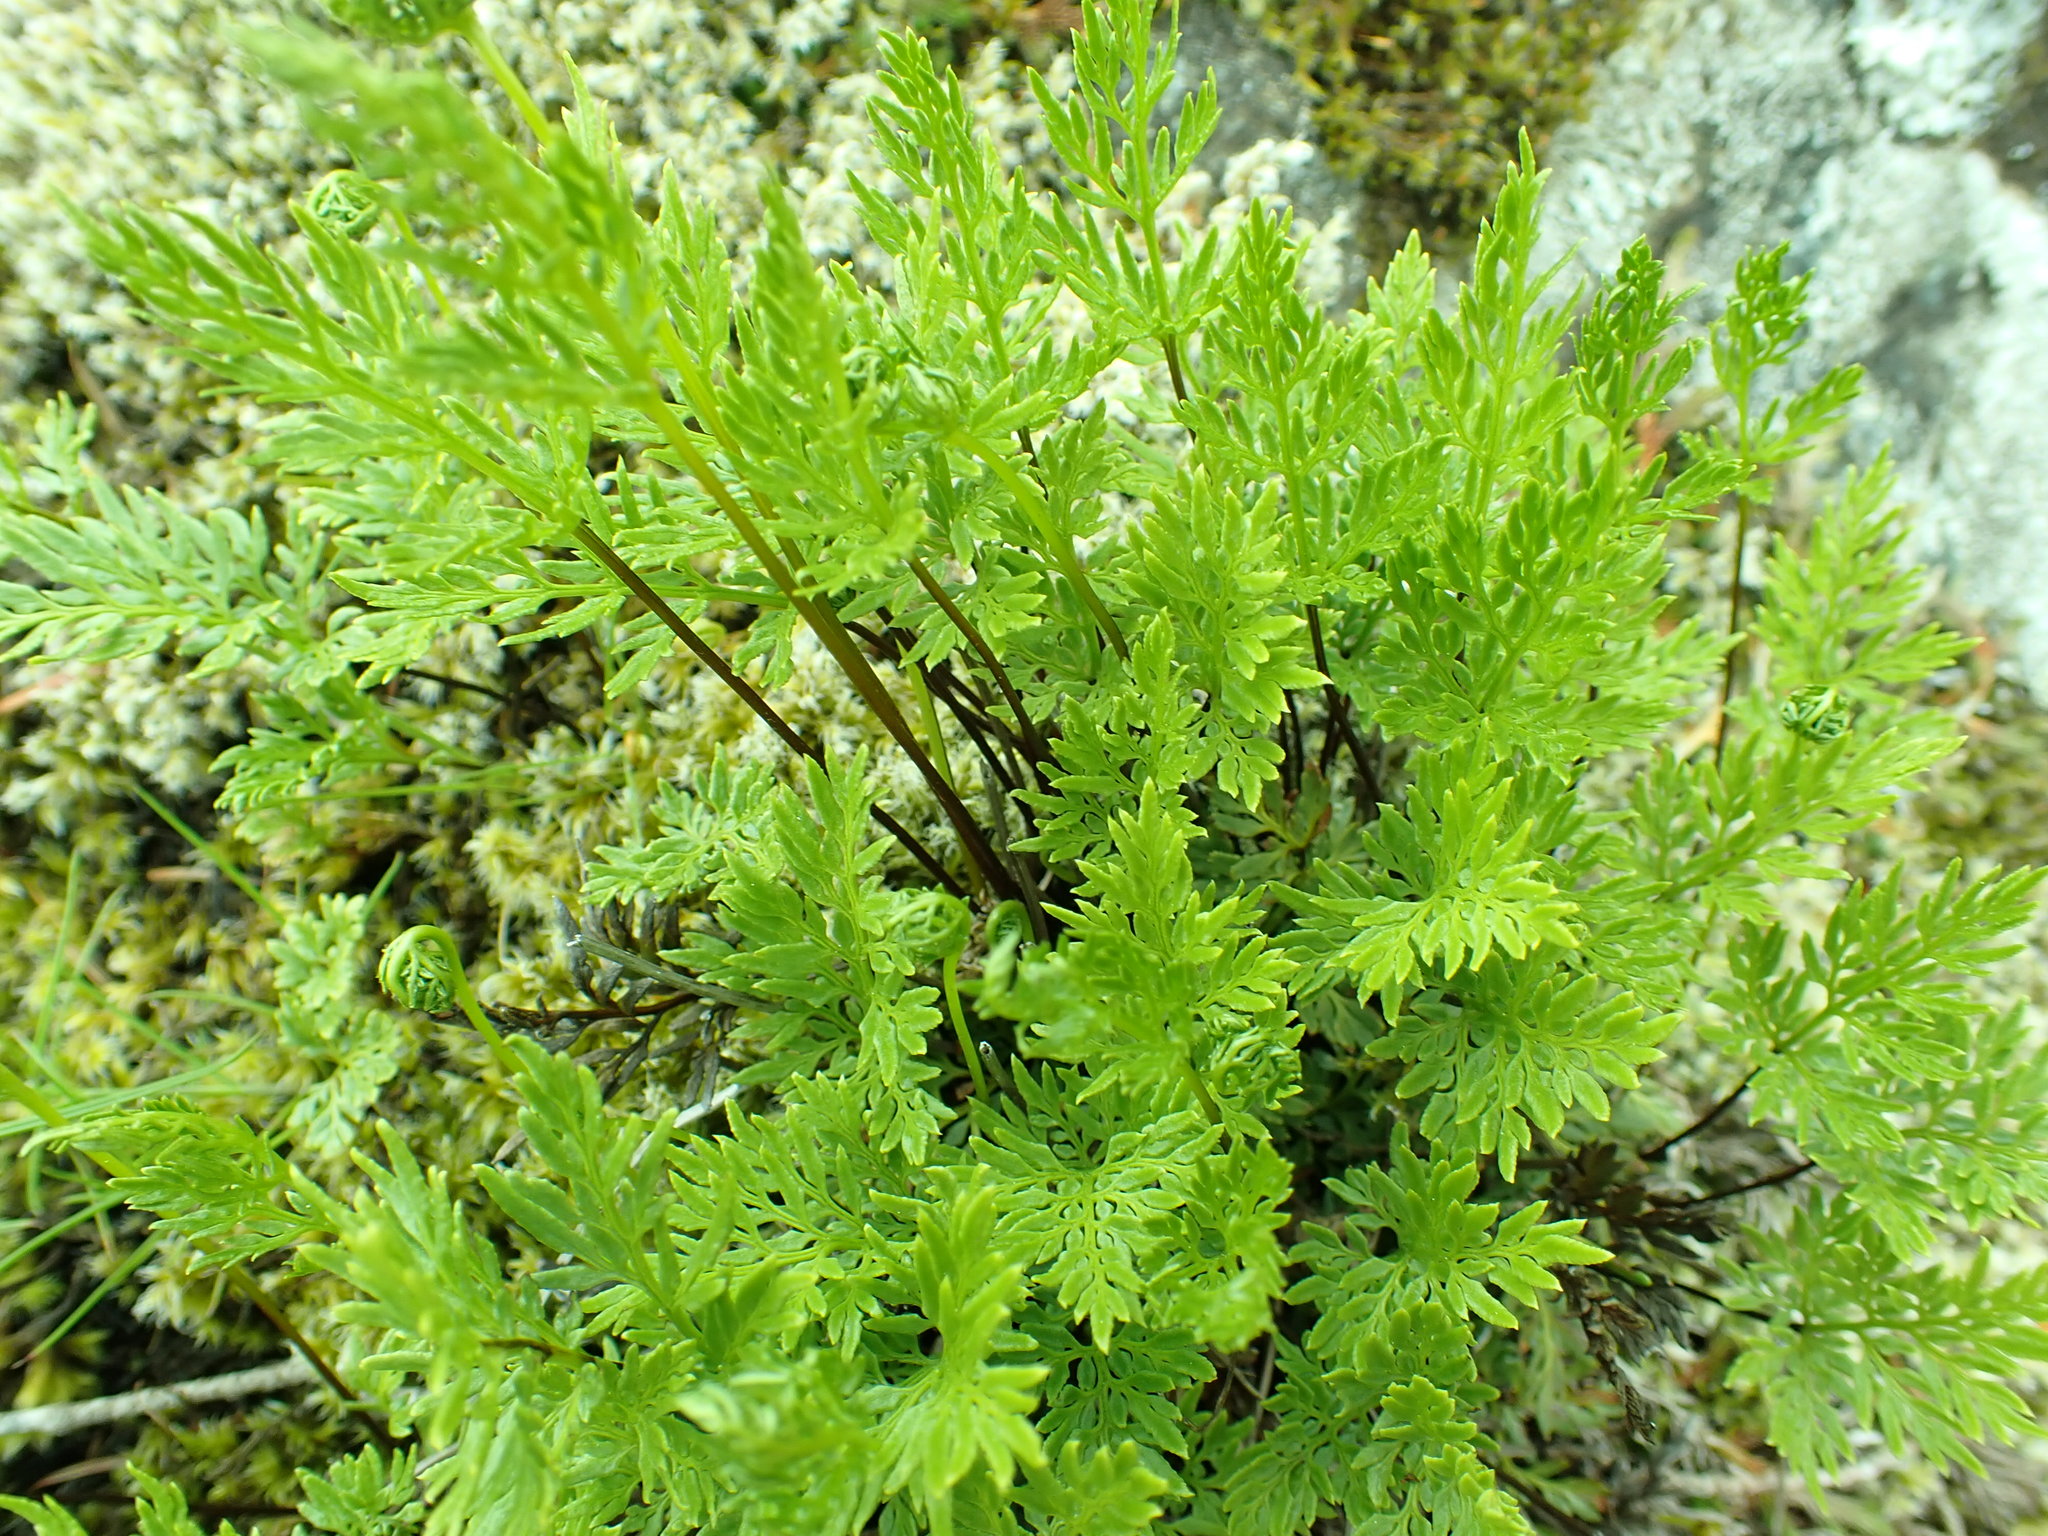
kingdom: Plantae
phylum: Tracheophyta
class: Polypodiopsida
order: Polypodiales
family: Pteridaceae
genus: Aspidotis
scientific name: Aspidotis densa
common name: Indian's dream
